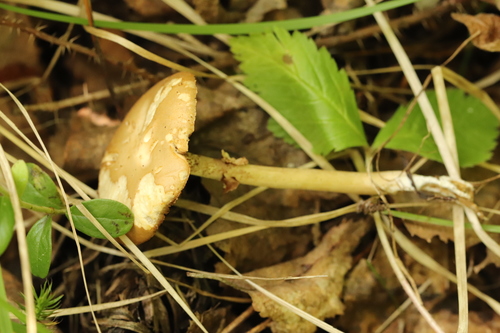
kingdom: Fungi
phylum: Basidiomycota
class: Agaricomycetes
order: Agaricales
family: Strophariaceae
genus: Agrocybe
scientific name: Agrocybe praecox
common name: Spring fieldcap
